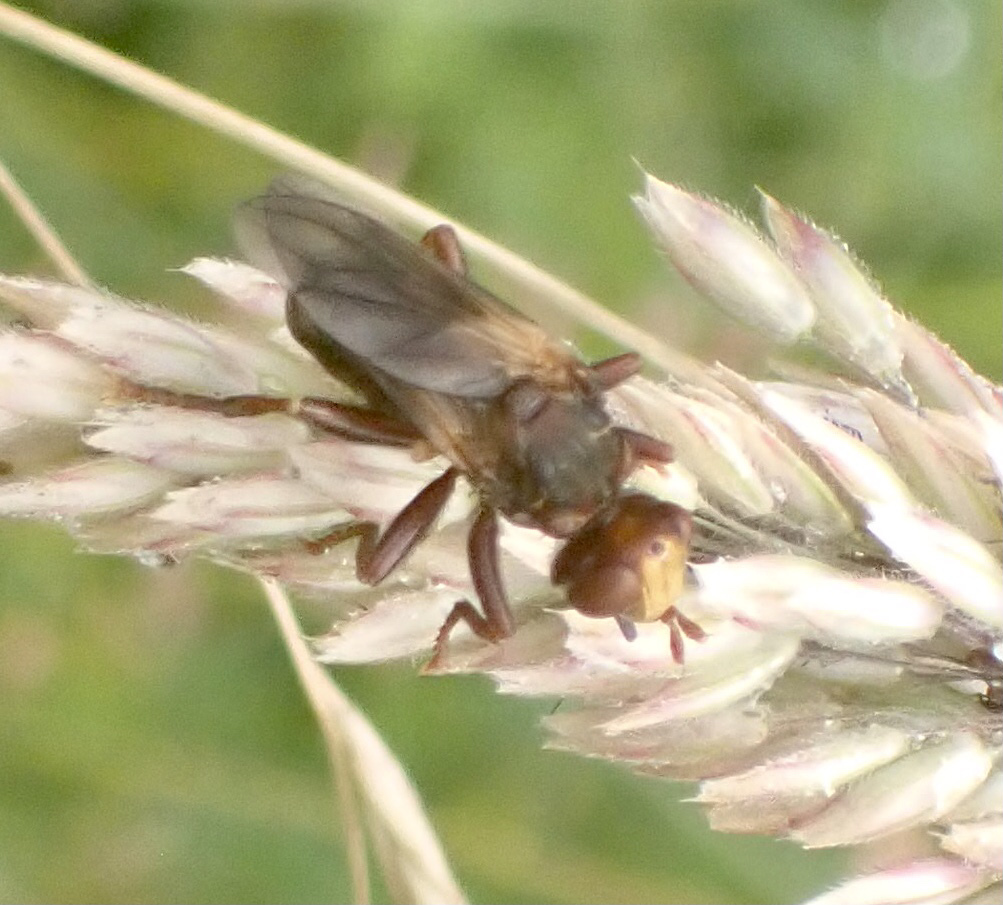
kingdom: Animalia
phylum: Arthropoda
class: Insecta
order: Diptera
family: Conopidae
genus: Sicus
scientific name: Sicus ferrugineus
